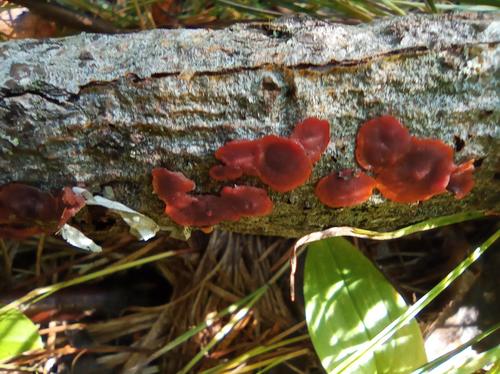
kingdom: Fungi
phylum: Basidiomycota
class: Agaricomycetes
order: Corticiales
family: Vuilleminiaceae
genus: Cytidia
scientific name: Cytidia salicina
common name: Scarlet splash
